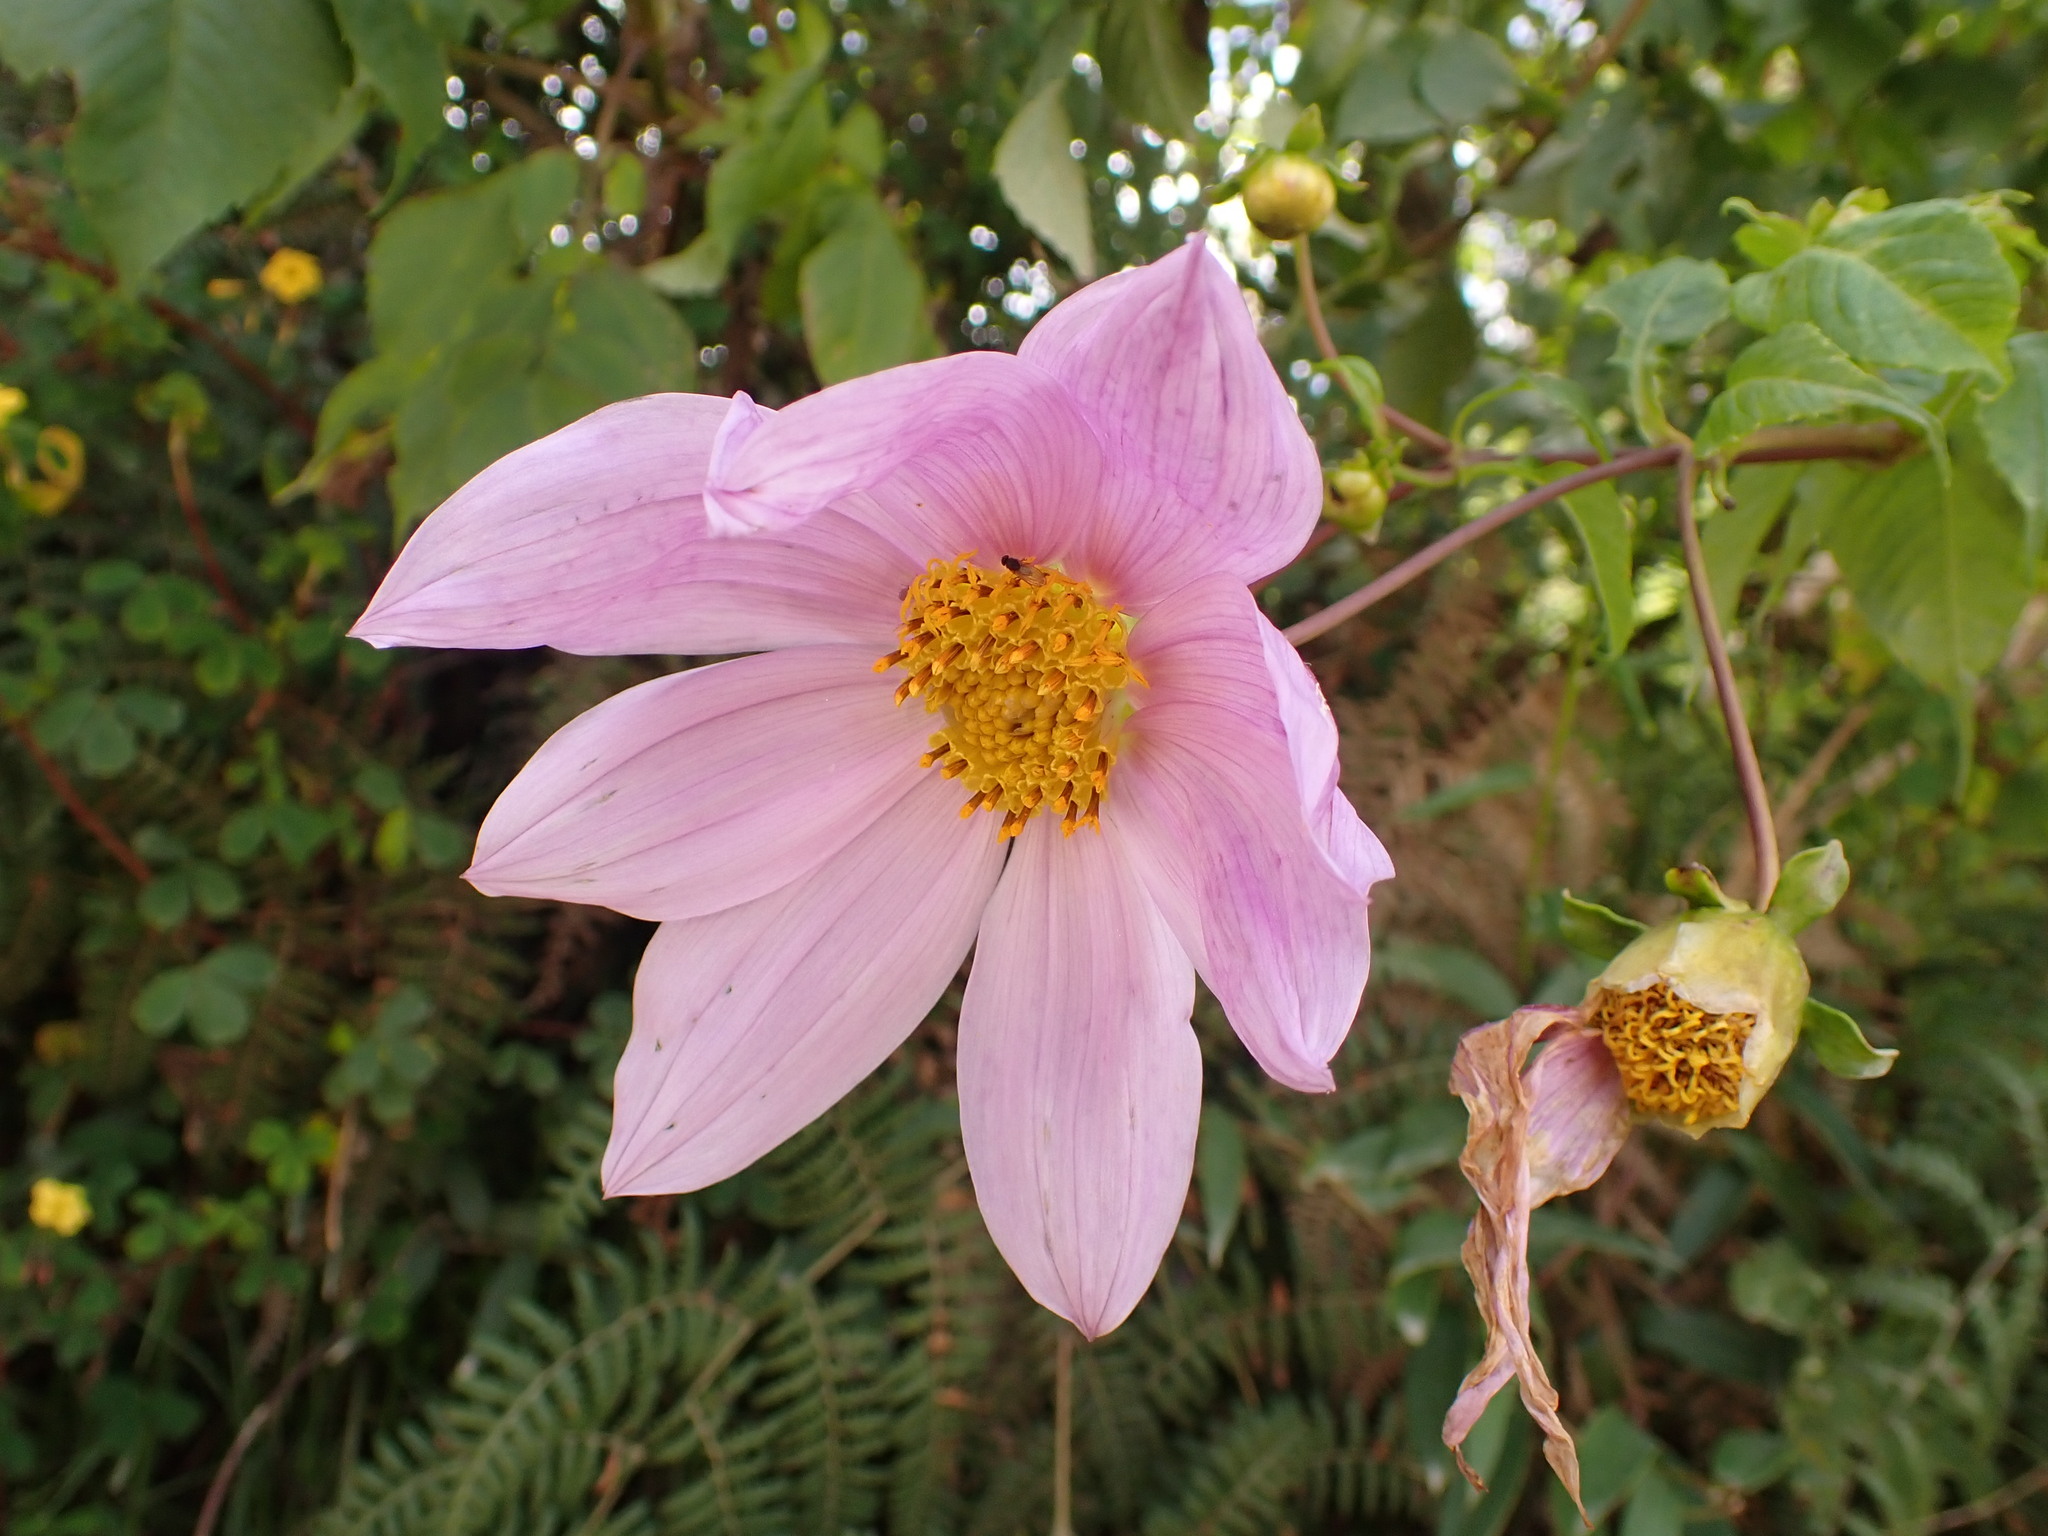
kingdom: Plantae
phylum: Tracheophyta
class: Magnoliopsida
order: Asterales
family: Asteraceae
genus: Dahlia
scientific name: Dahlia imperialis
